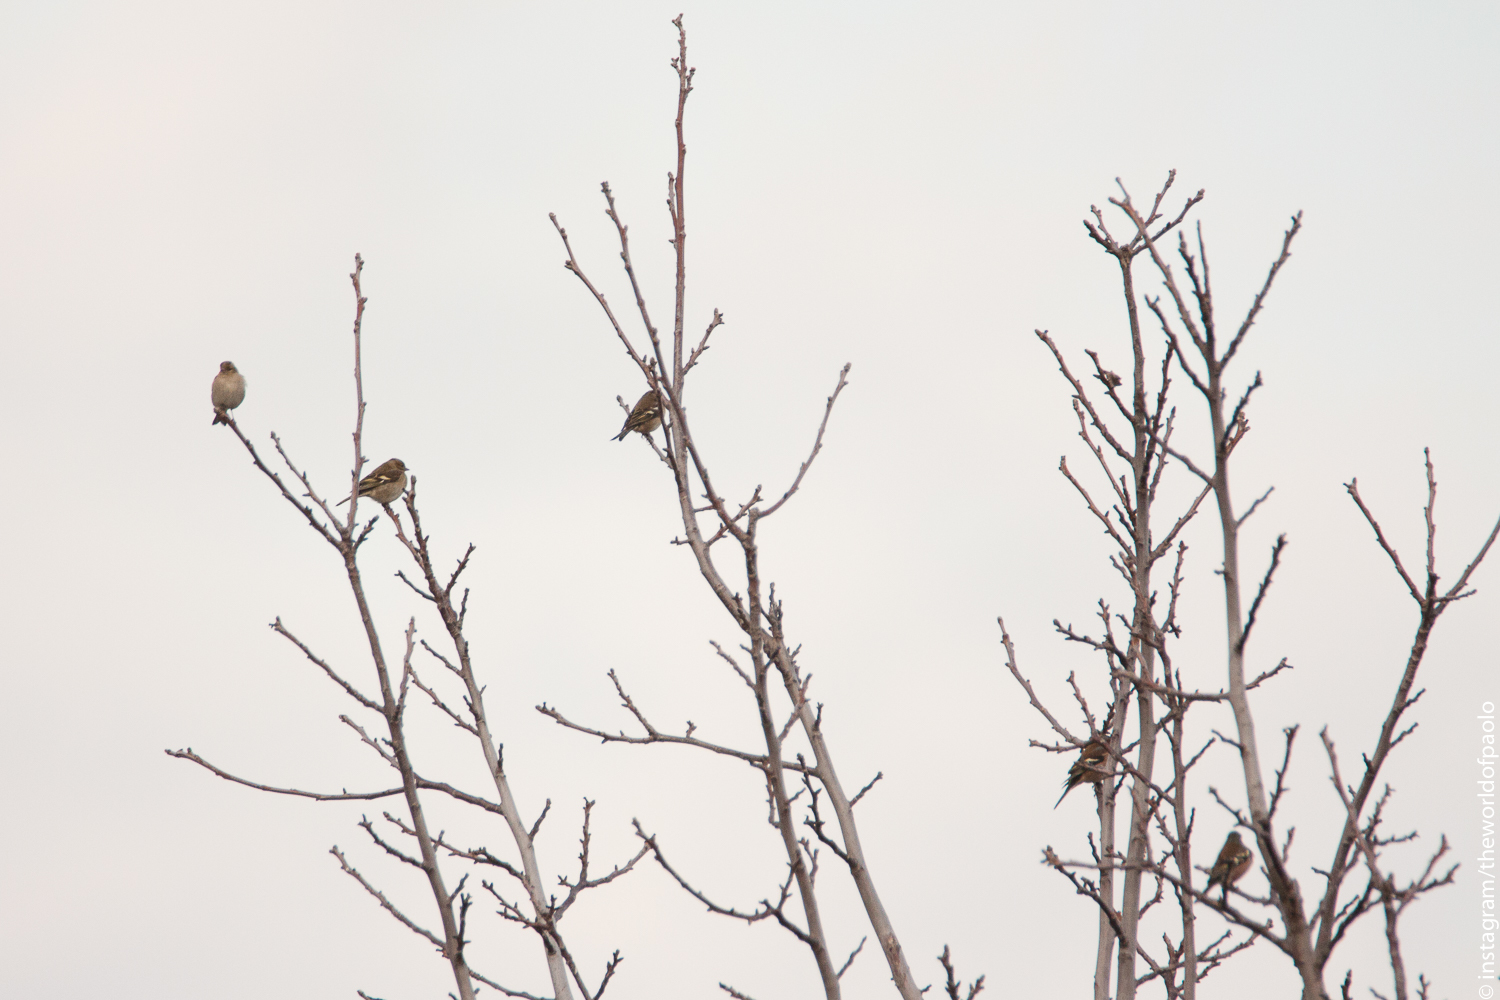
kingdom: Animalia
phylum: Chordata
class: Aves
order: Passeriformes
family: Fringillidae
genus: Fringilla
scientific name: Fringilla coelebs
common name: Common chaffinch
